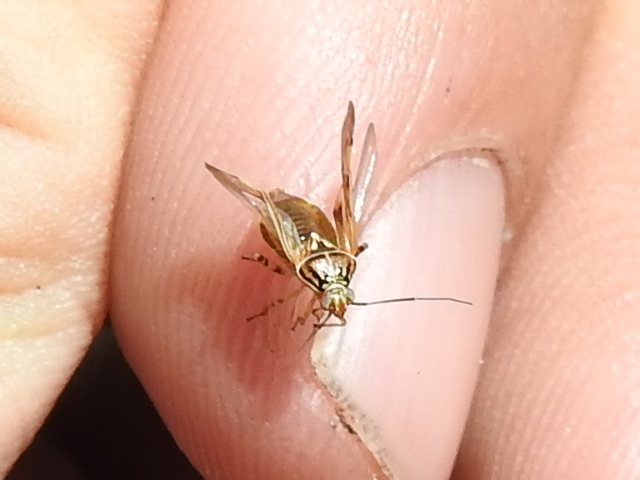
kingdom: Animalia
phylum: Arthropoda
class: Insecta
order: Hemiptera
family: Miridae
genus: Lygus
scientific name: Lygus lineolaris
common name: North american tarnished plant bug
